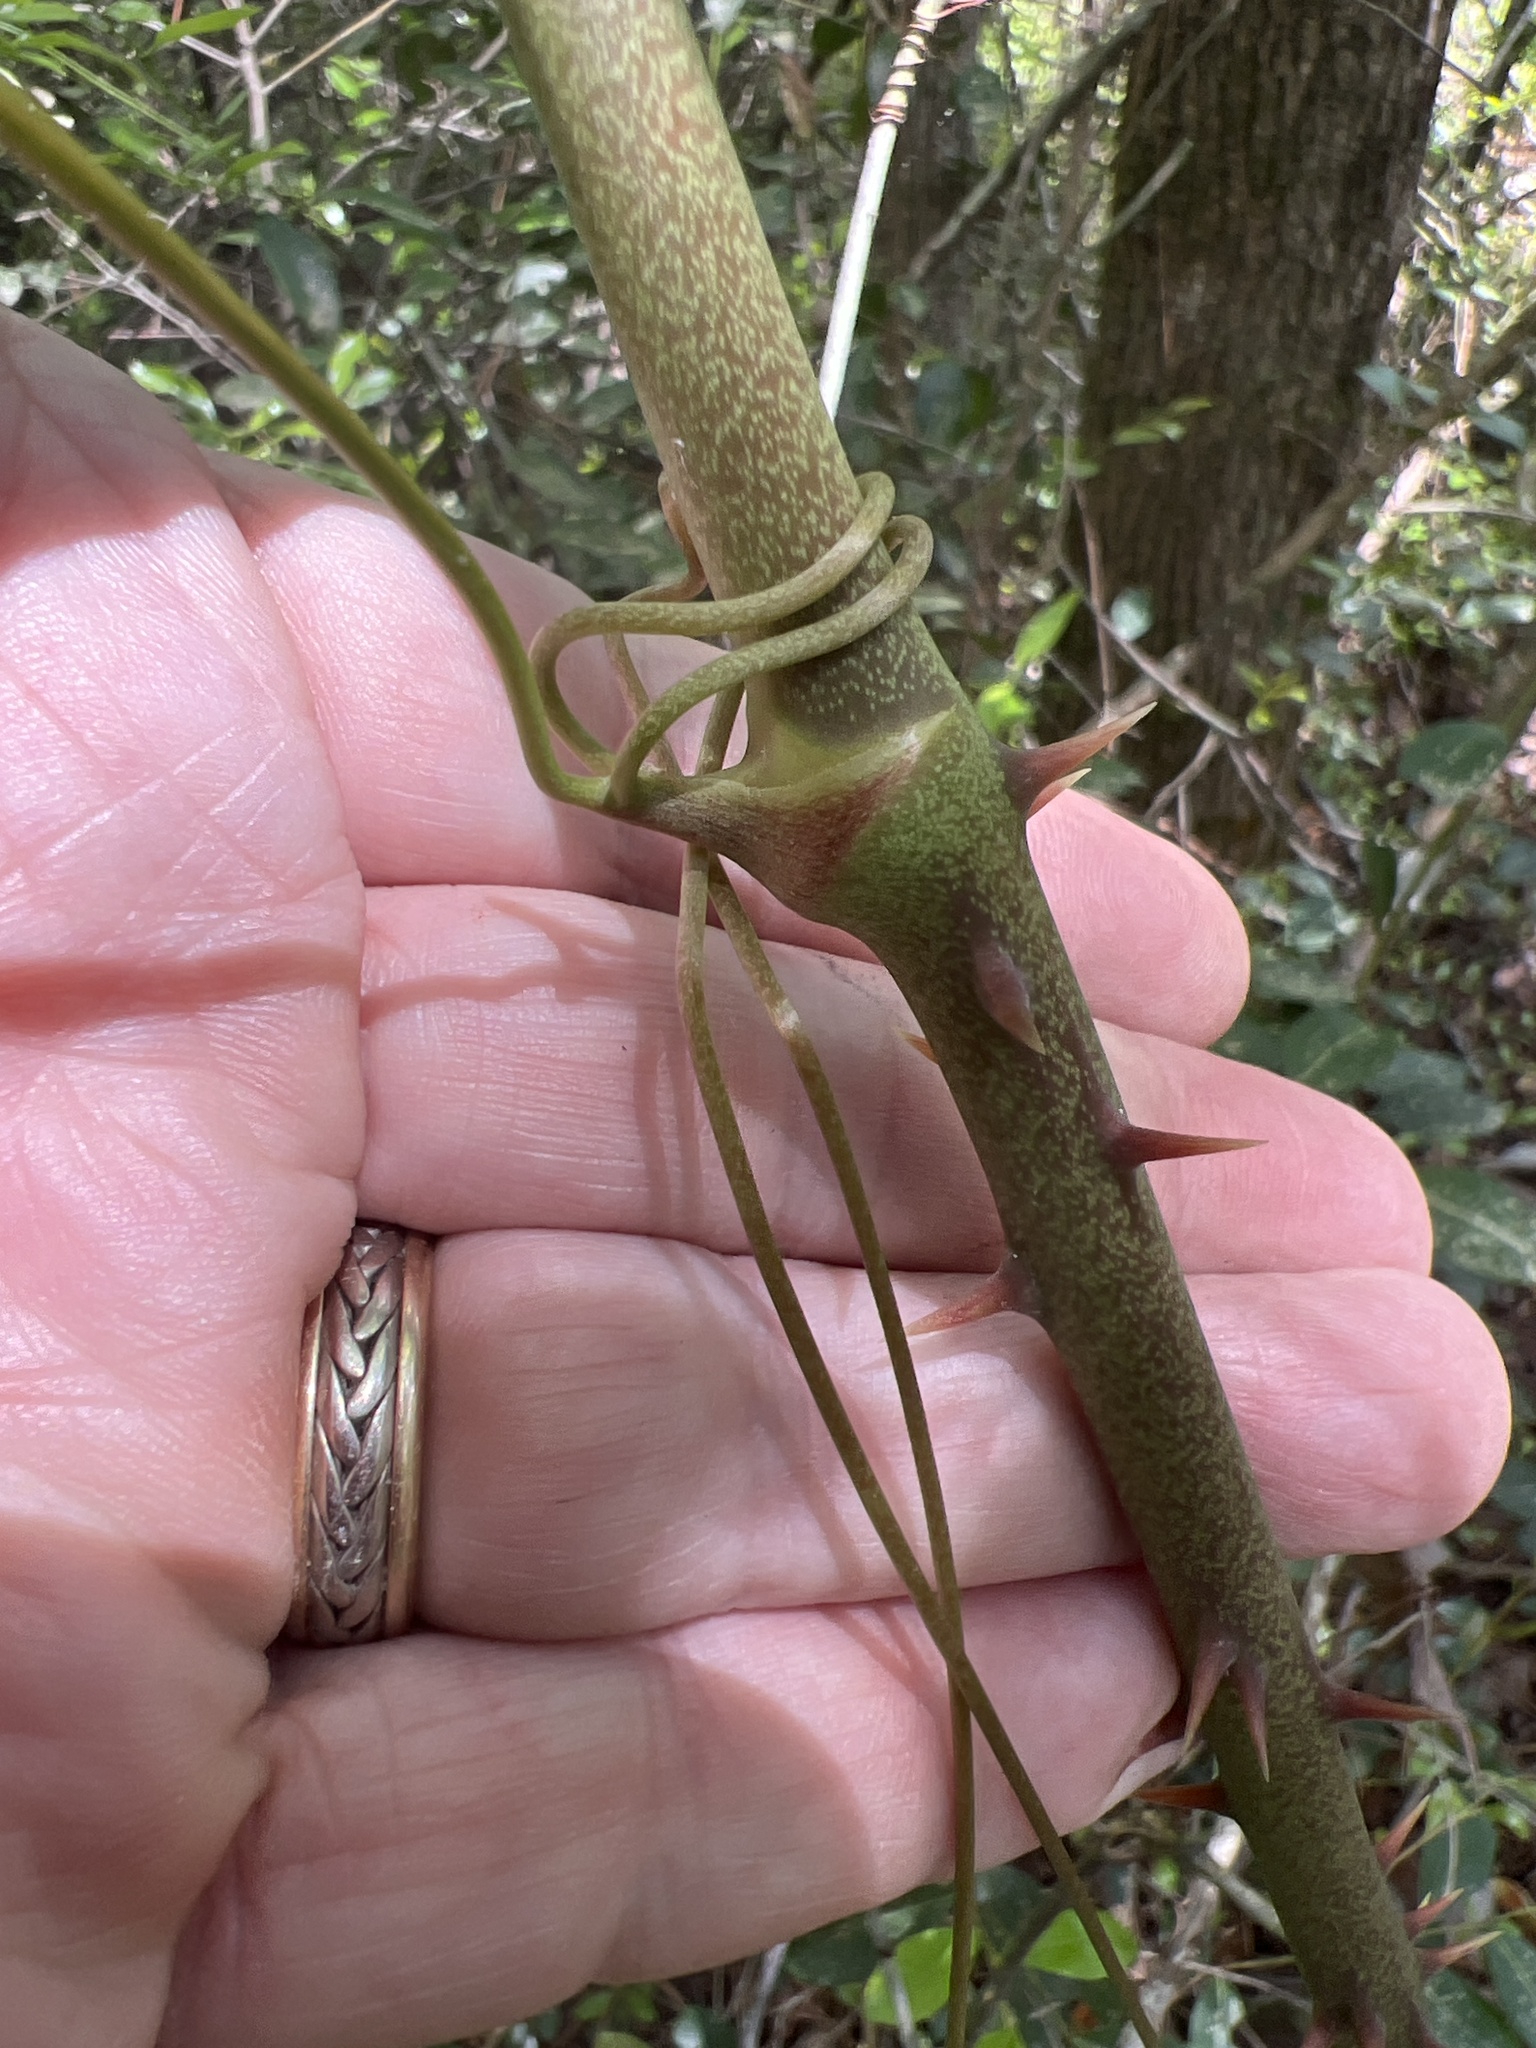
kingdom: Plantae
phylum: Tracheophyta
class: Liliopsida
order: Liliales
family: Smilacaceae
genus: Smilax
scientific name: Smilax laurifolia
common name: Bamboovine
